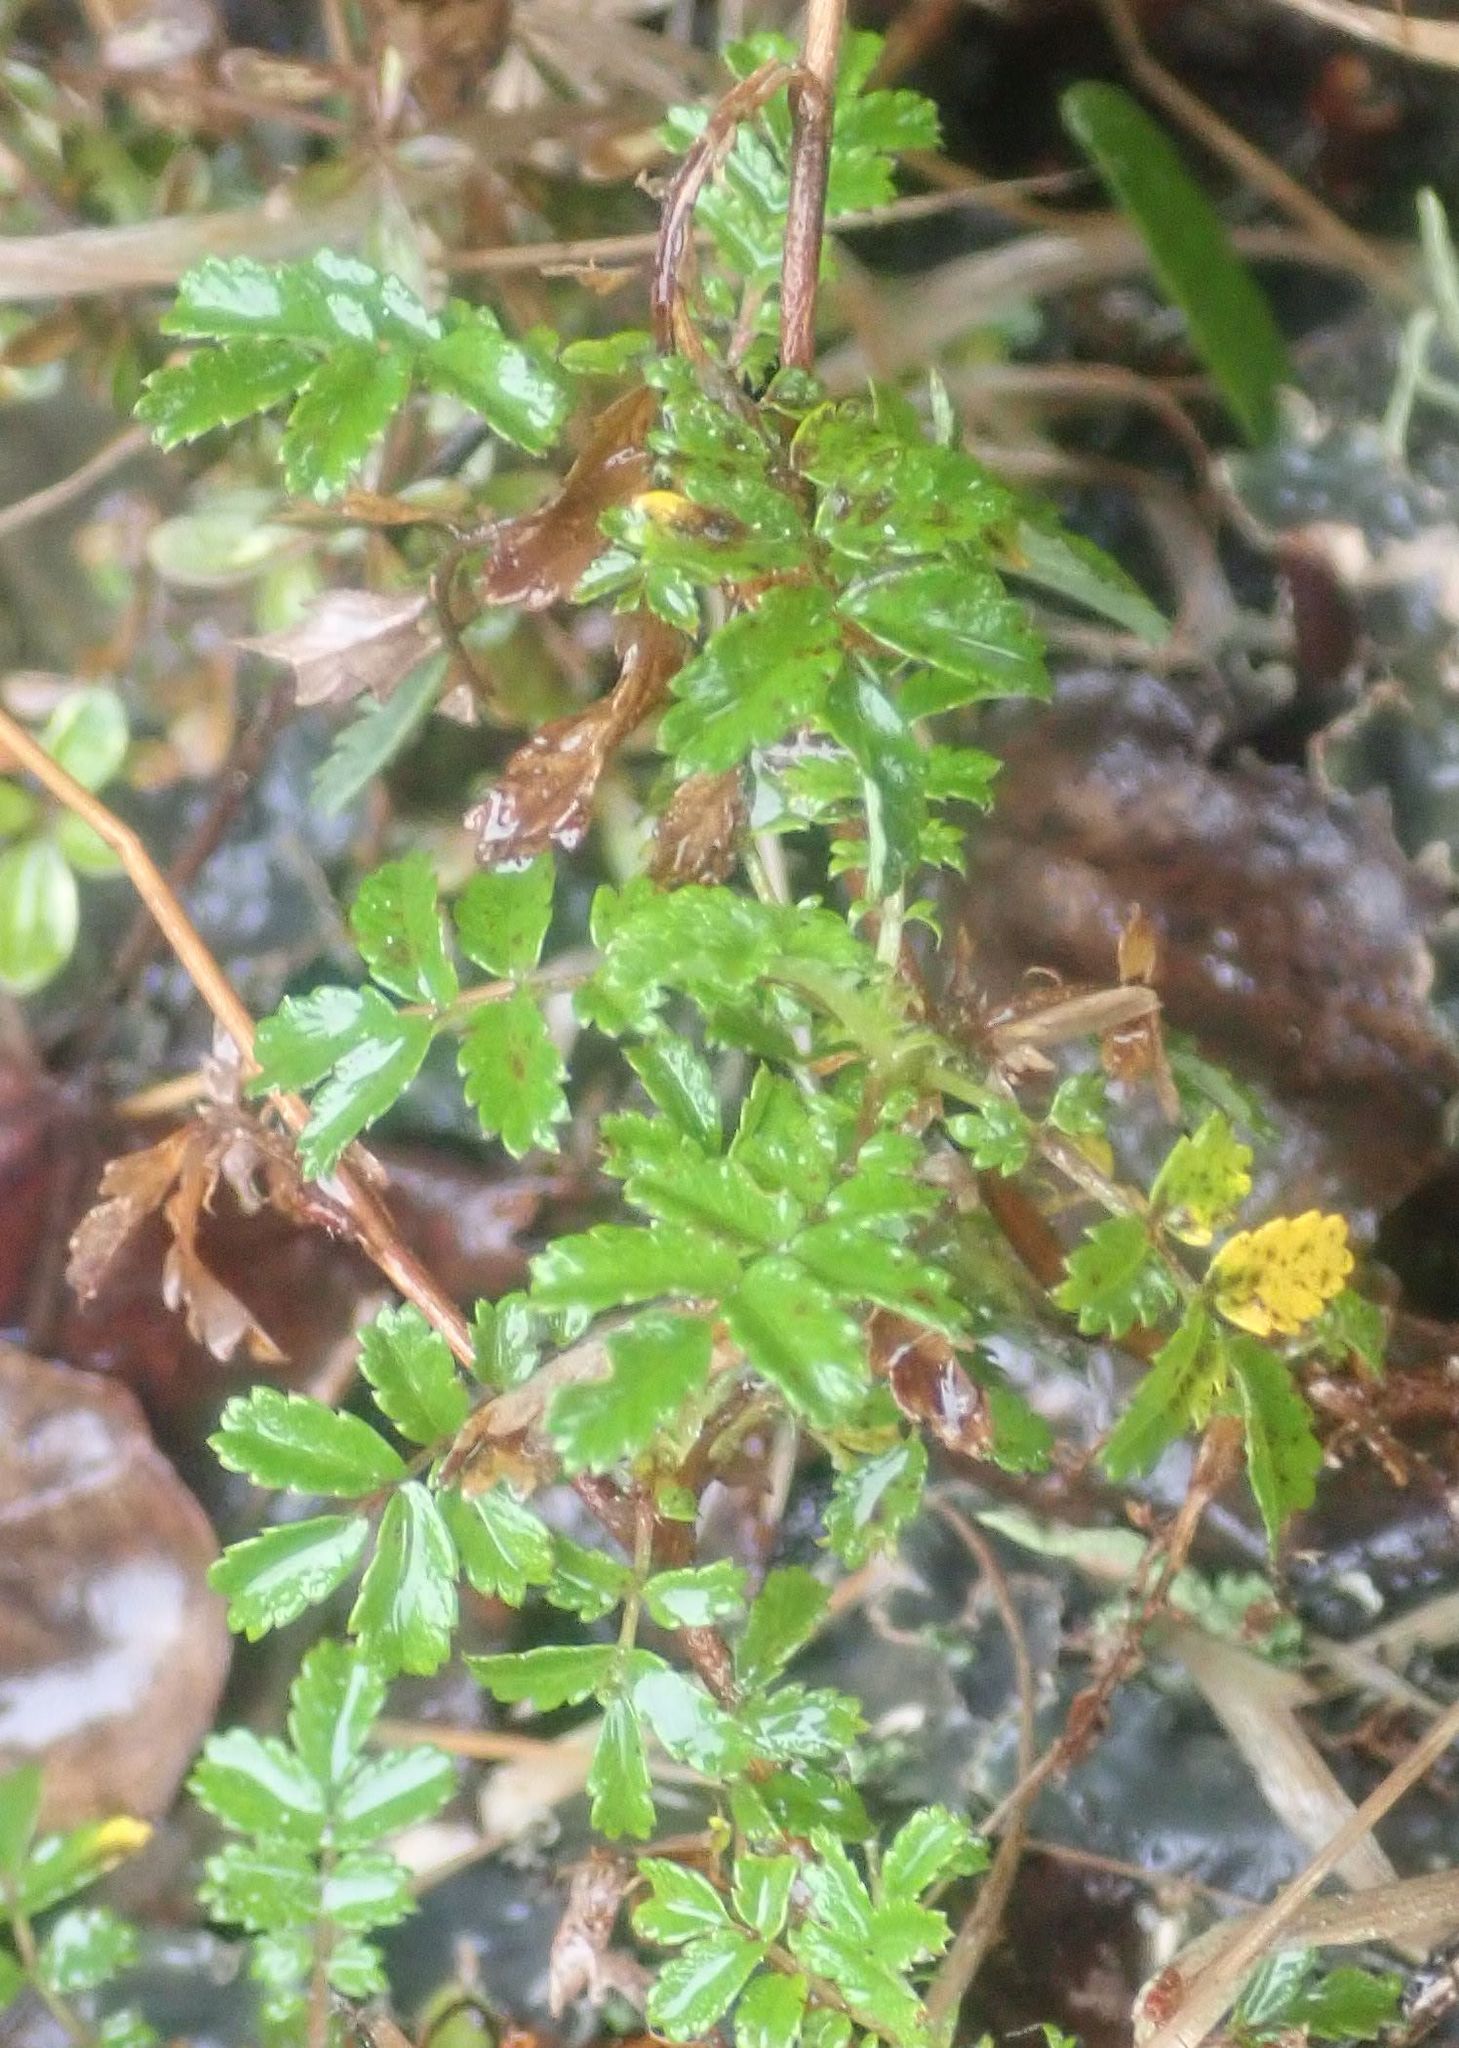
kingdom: Plantae
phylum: Tracheophyta
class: Magnoliopsida
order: Rosales
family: Rosaceae
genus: Acaena
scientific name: Acaena novae-zelandiae
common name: Pirri-pirri-bur
